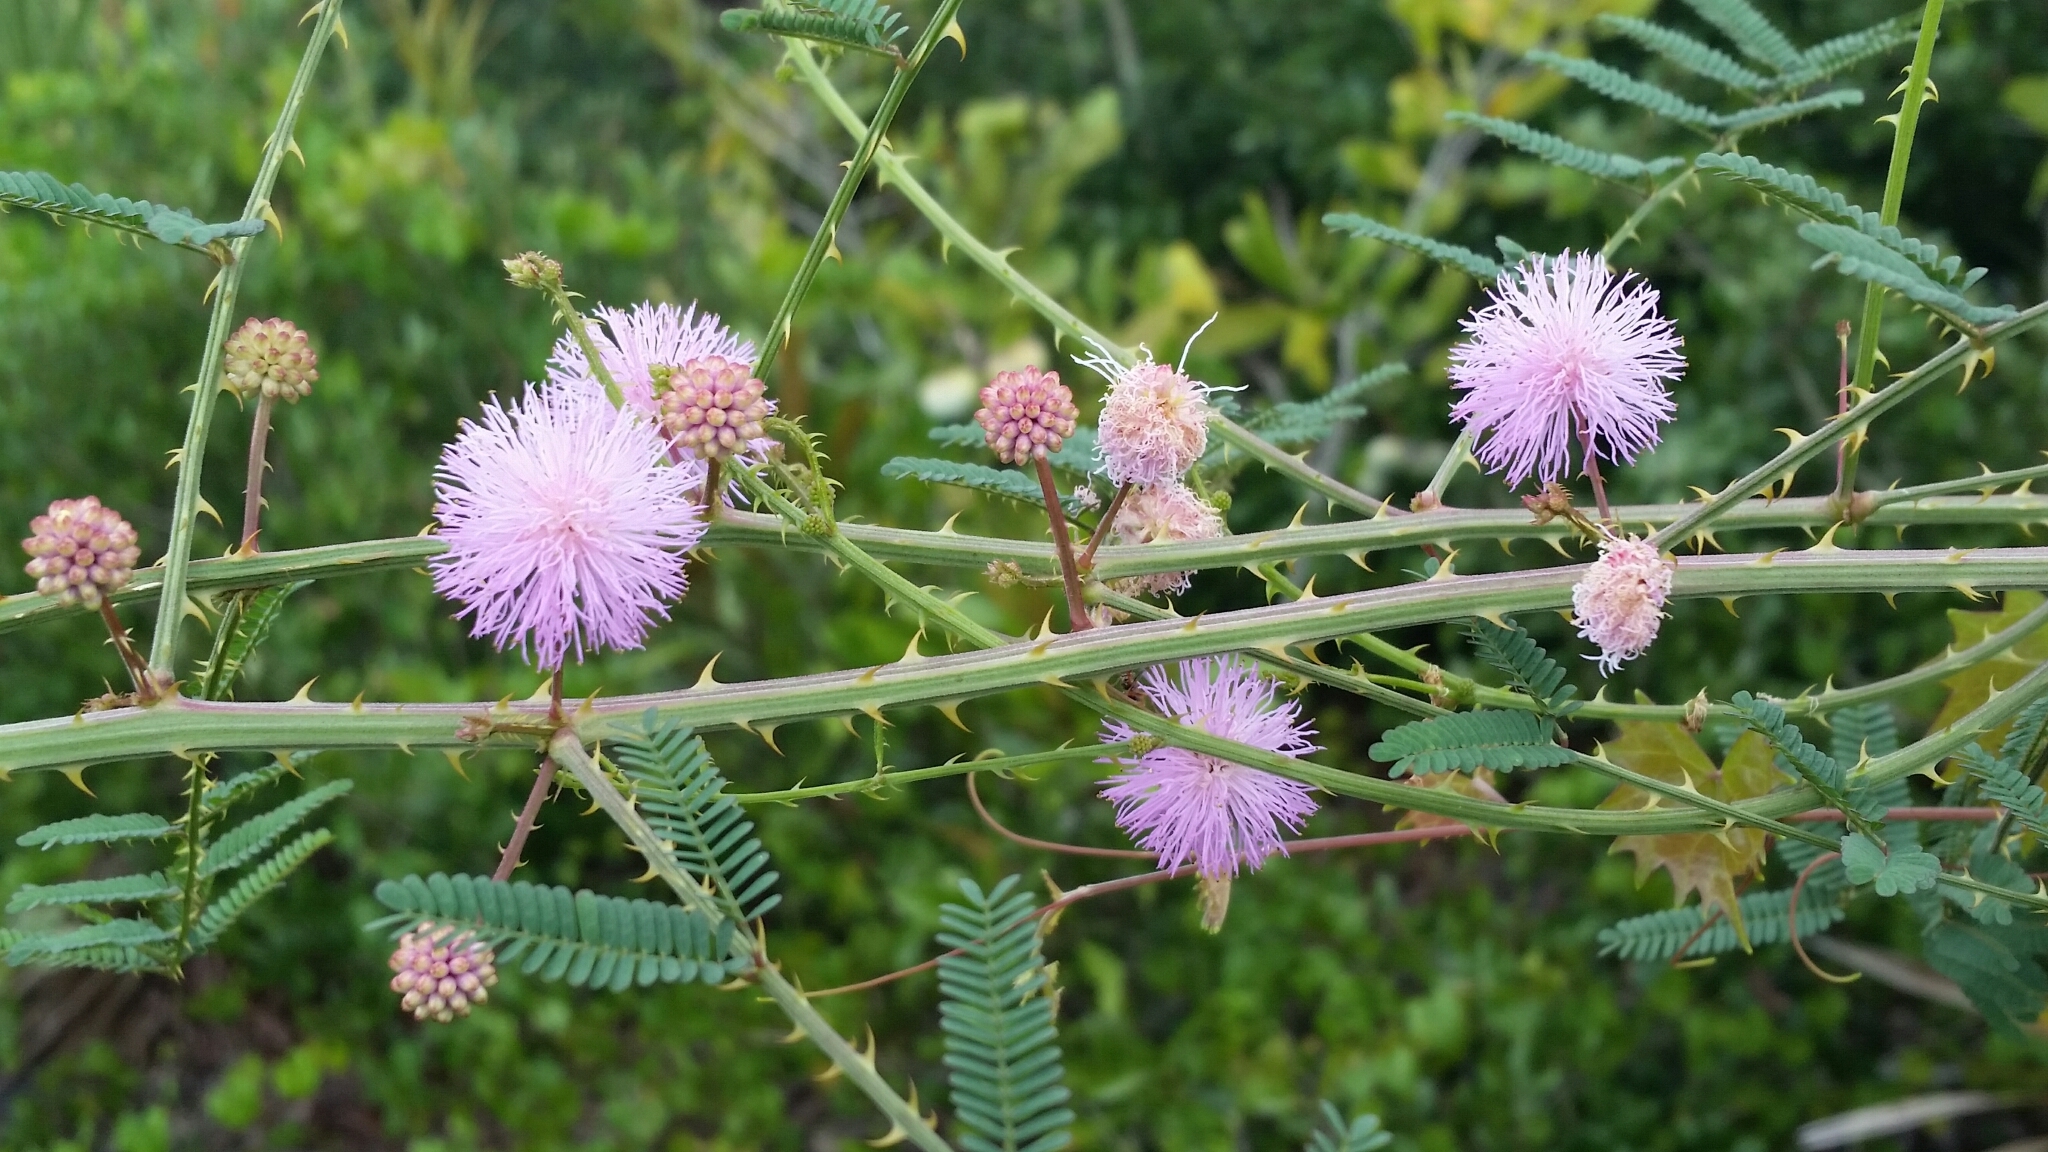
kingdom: Plantae
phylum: Tracheophyta
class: Magnoliopsida
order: Fabales
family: Fabaceae
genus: Mimosa
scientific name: Mimosa floridana
